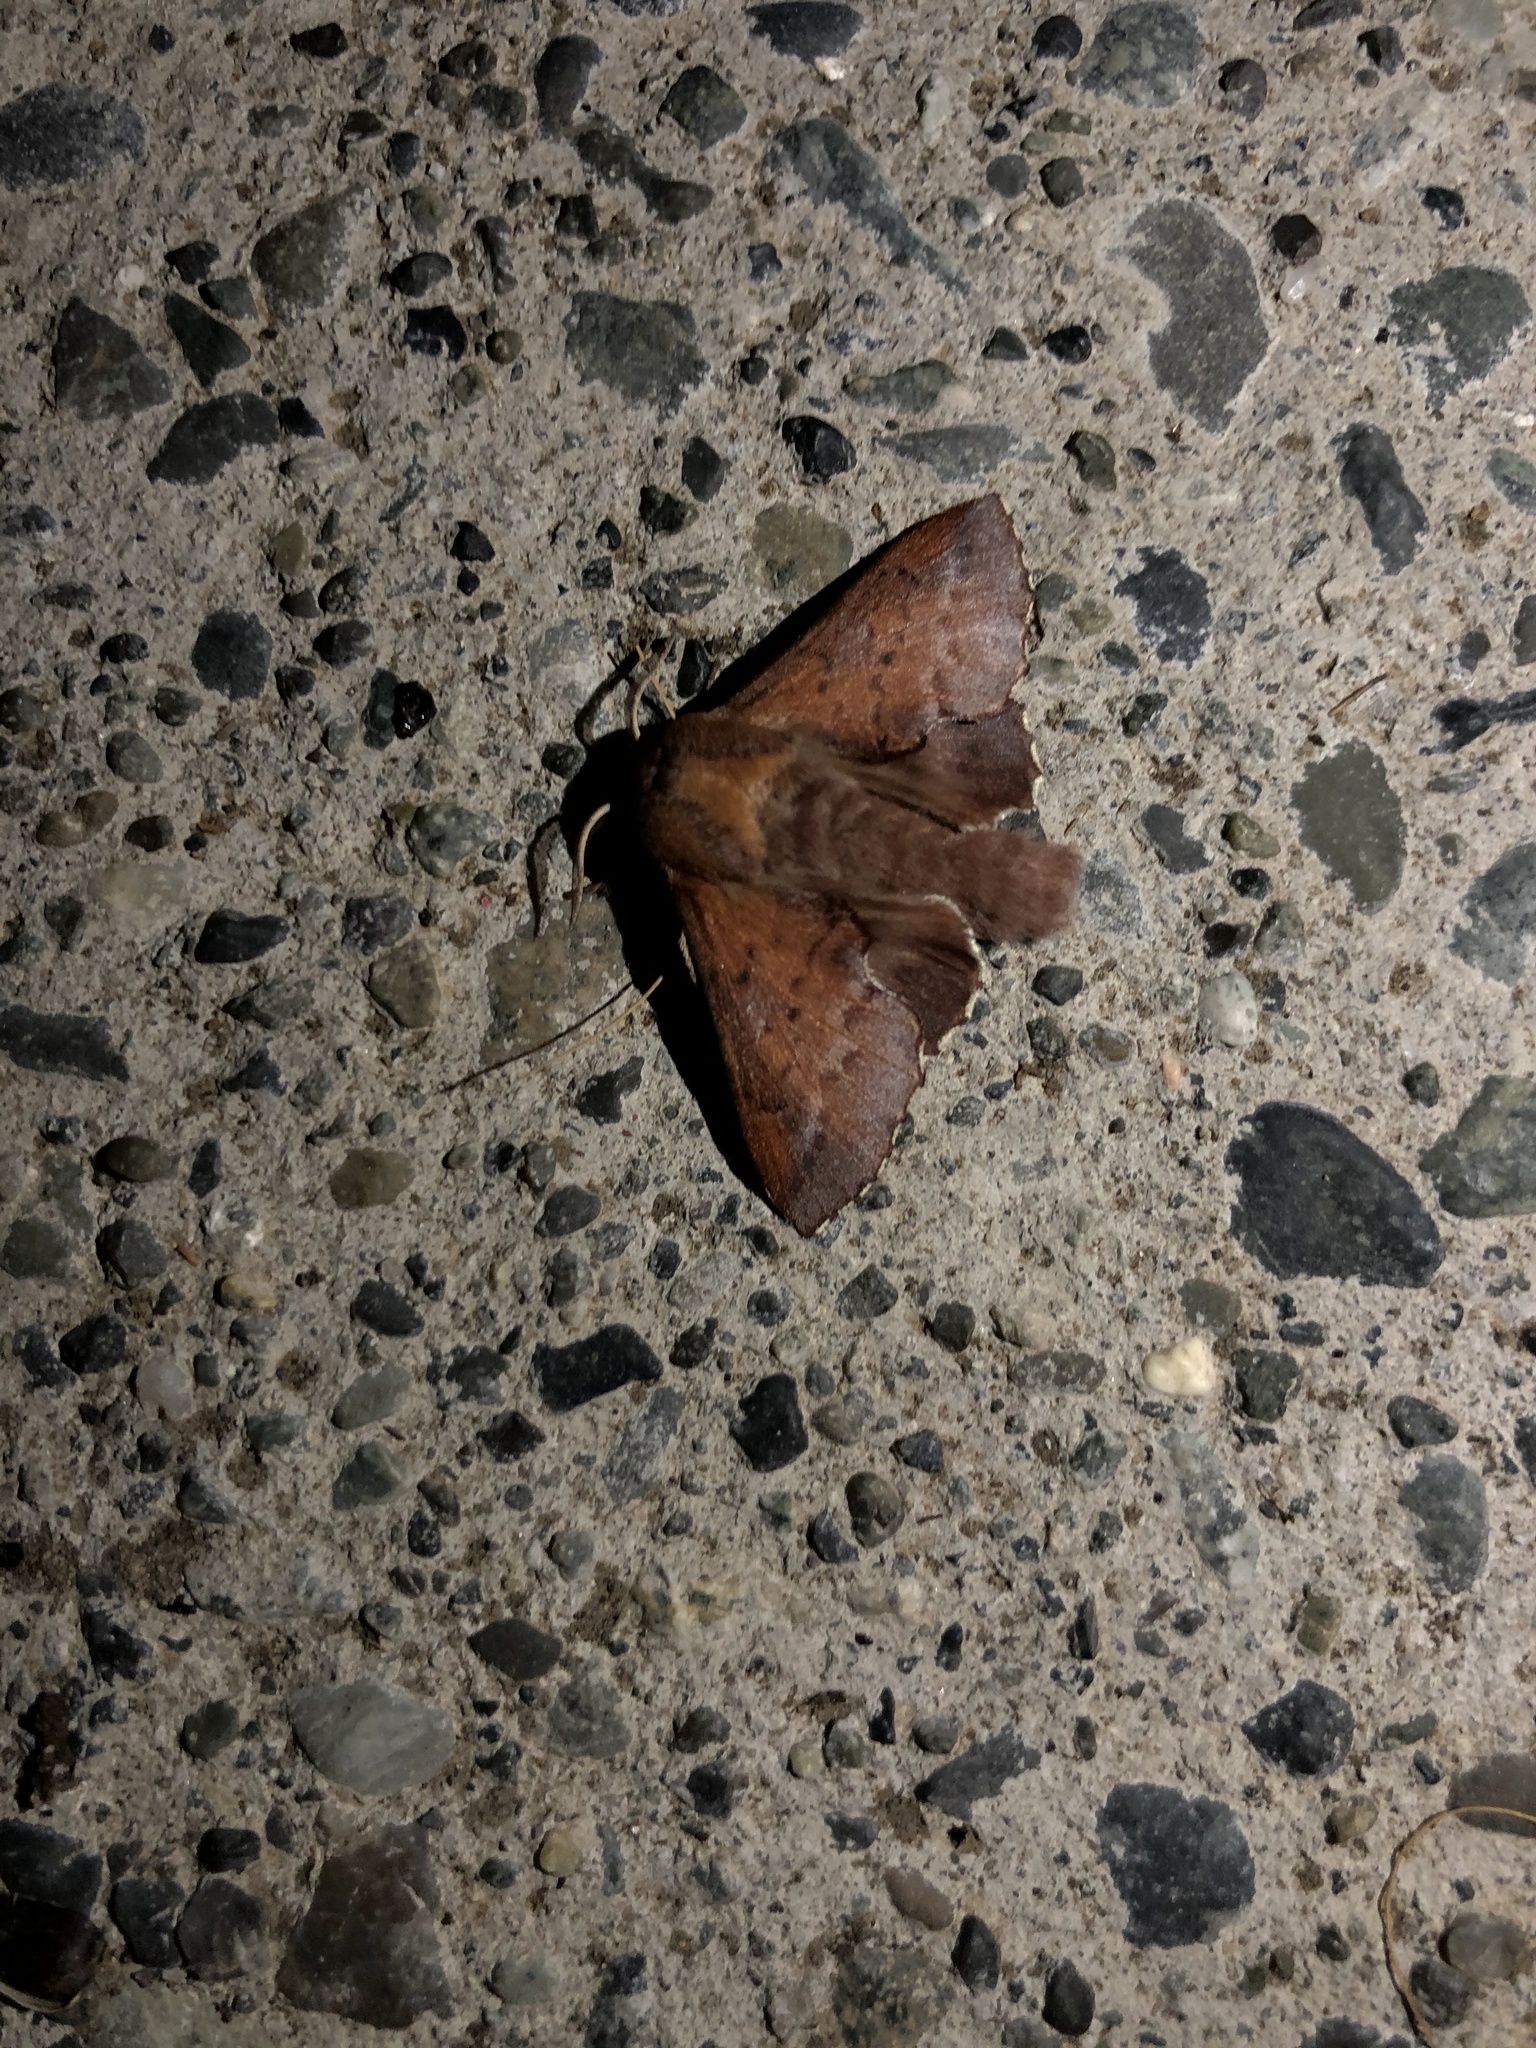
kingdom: Animalia
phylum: Arthropoda
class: Insecta
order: Lepidoptera
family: Lasiocampidae
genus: Phyllodesma
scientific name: Phyllodesma americana
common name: American lappet moth
